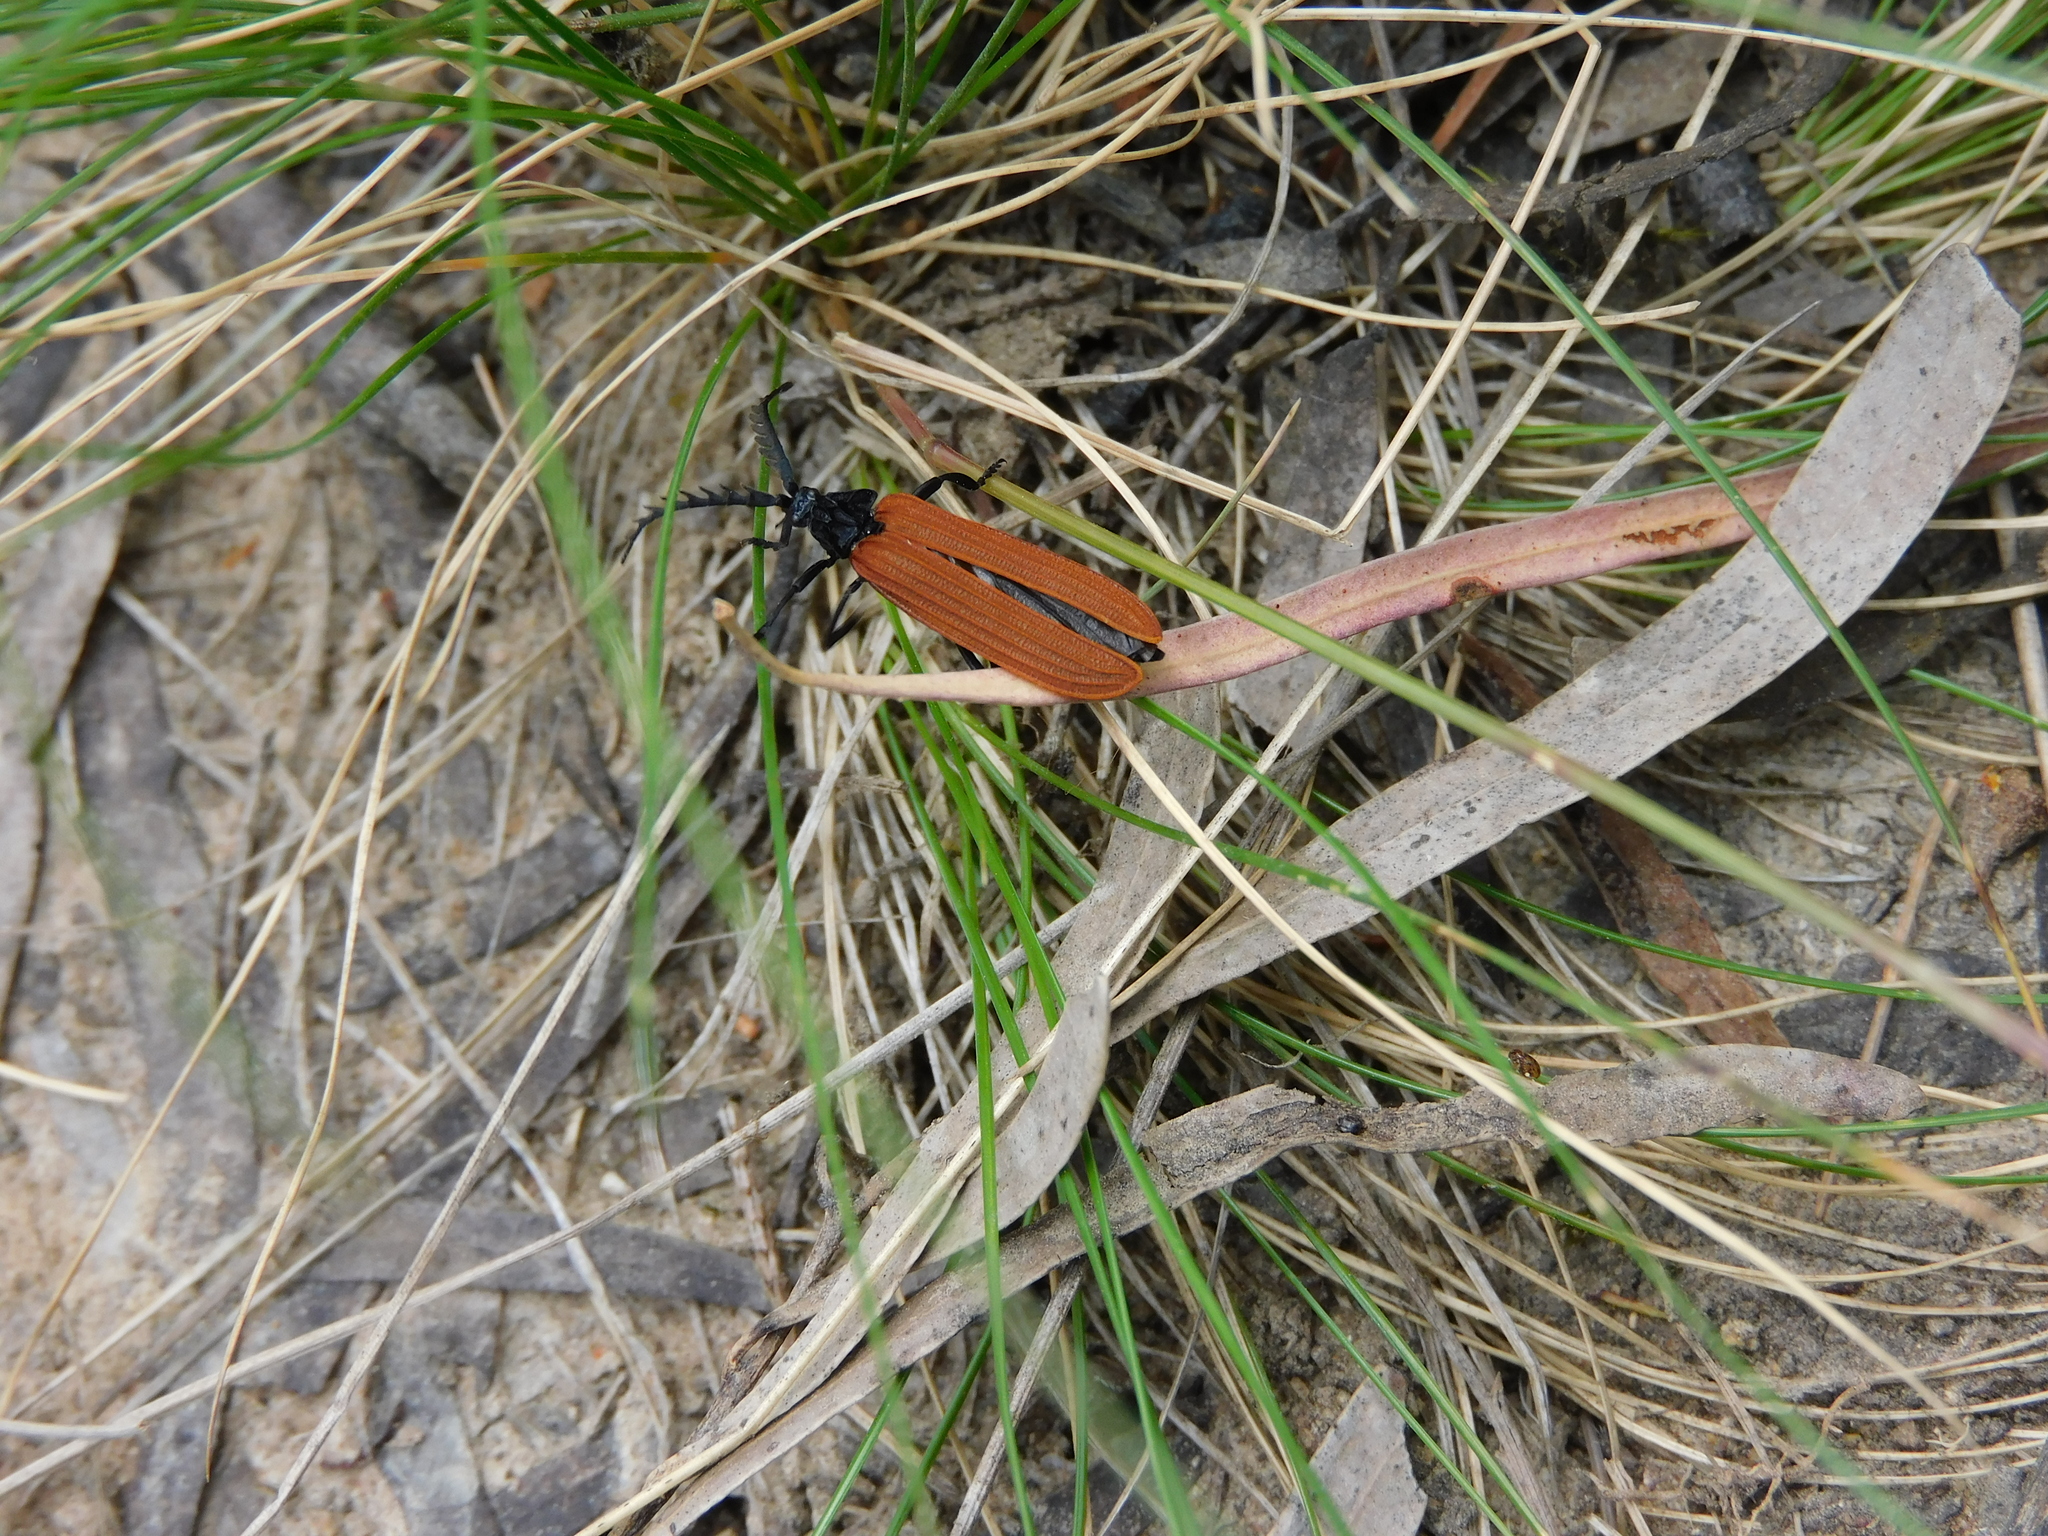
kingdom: Animalia
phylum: Arthropoda
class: Insecta
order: Coleoptera
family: Lycidae
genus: Porrostoma
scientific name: Porrostoma rufipenne
